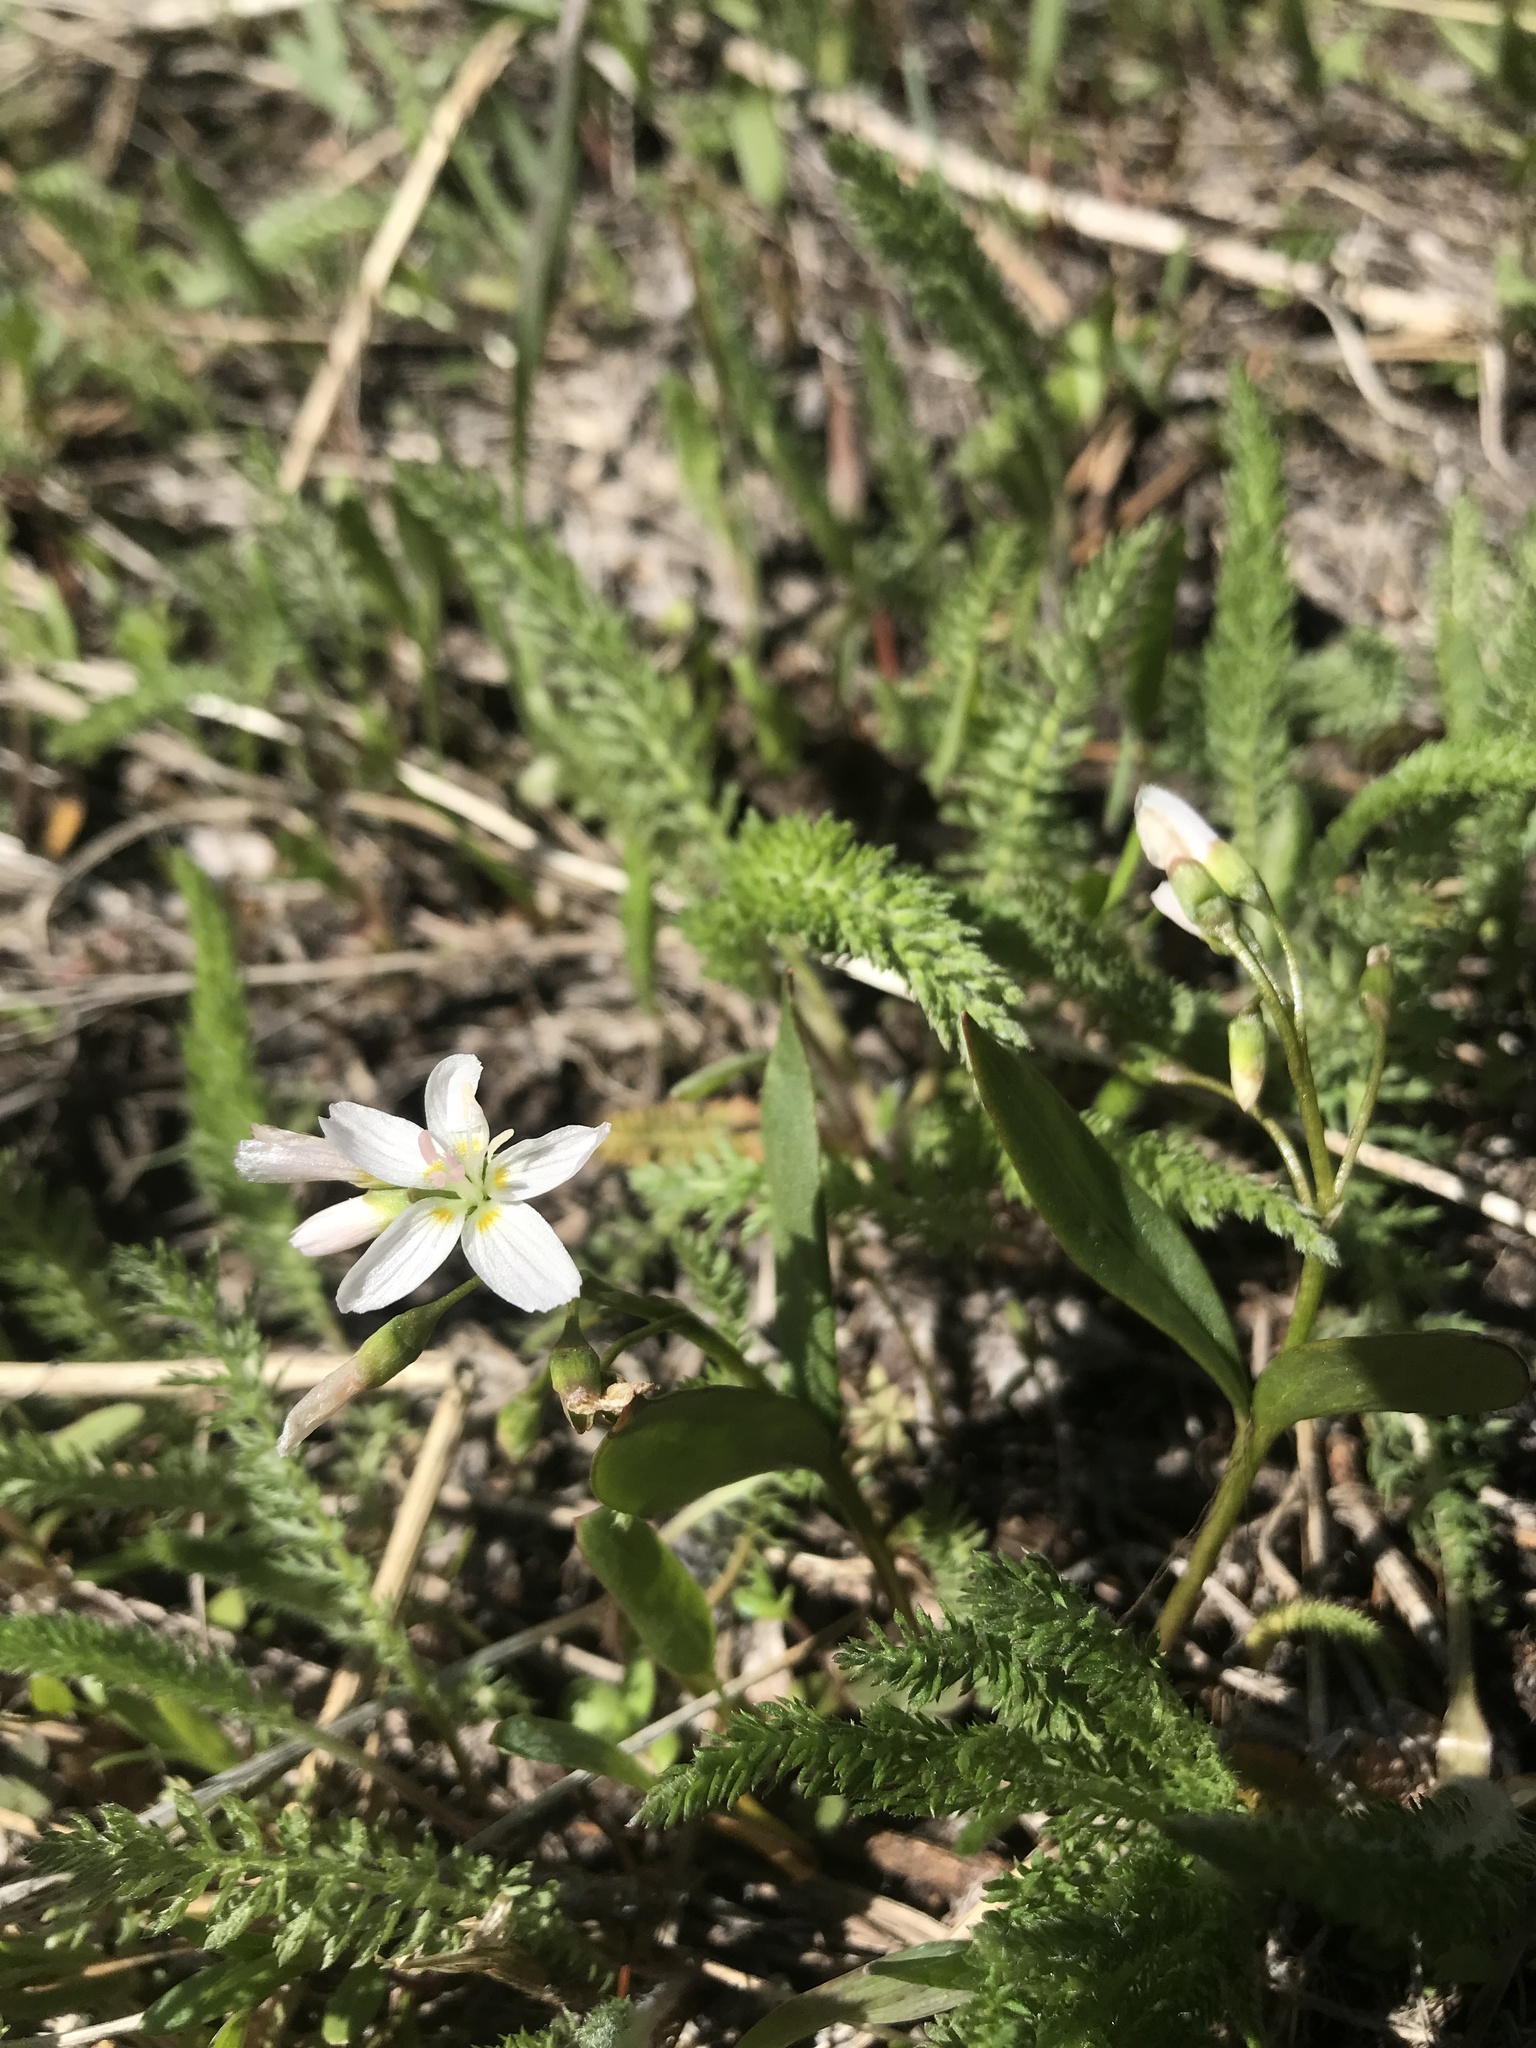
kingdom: Plantae
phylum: Tracheophyta
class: Magnoliopsida
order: Caryophyllales
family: Montiaceae
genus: Claytonia
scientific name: Claytonia lanceolata
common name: Western spring-beauty
